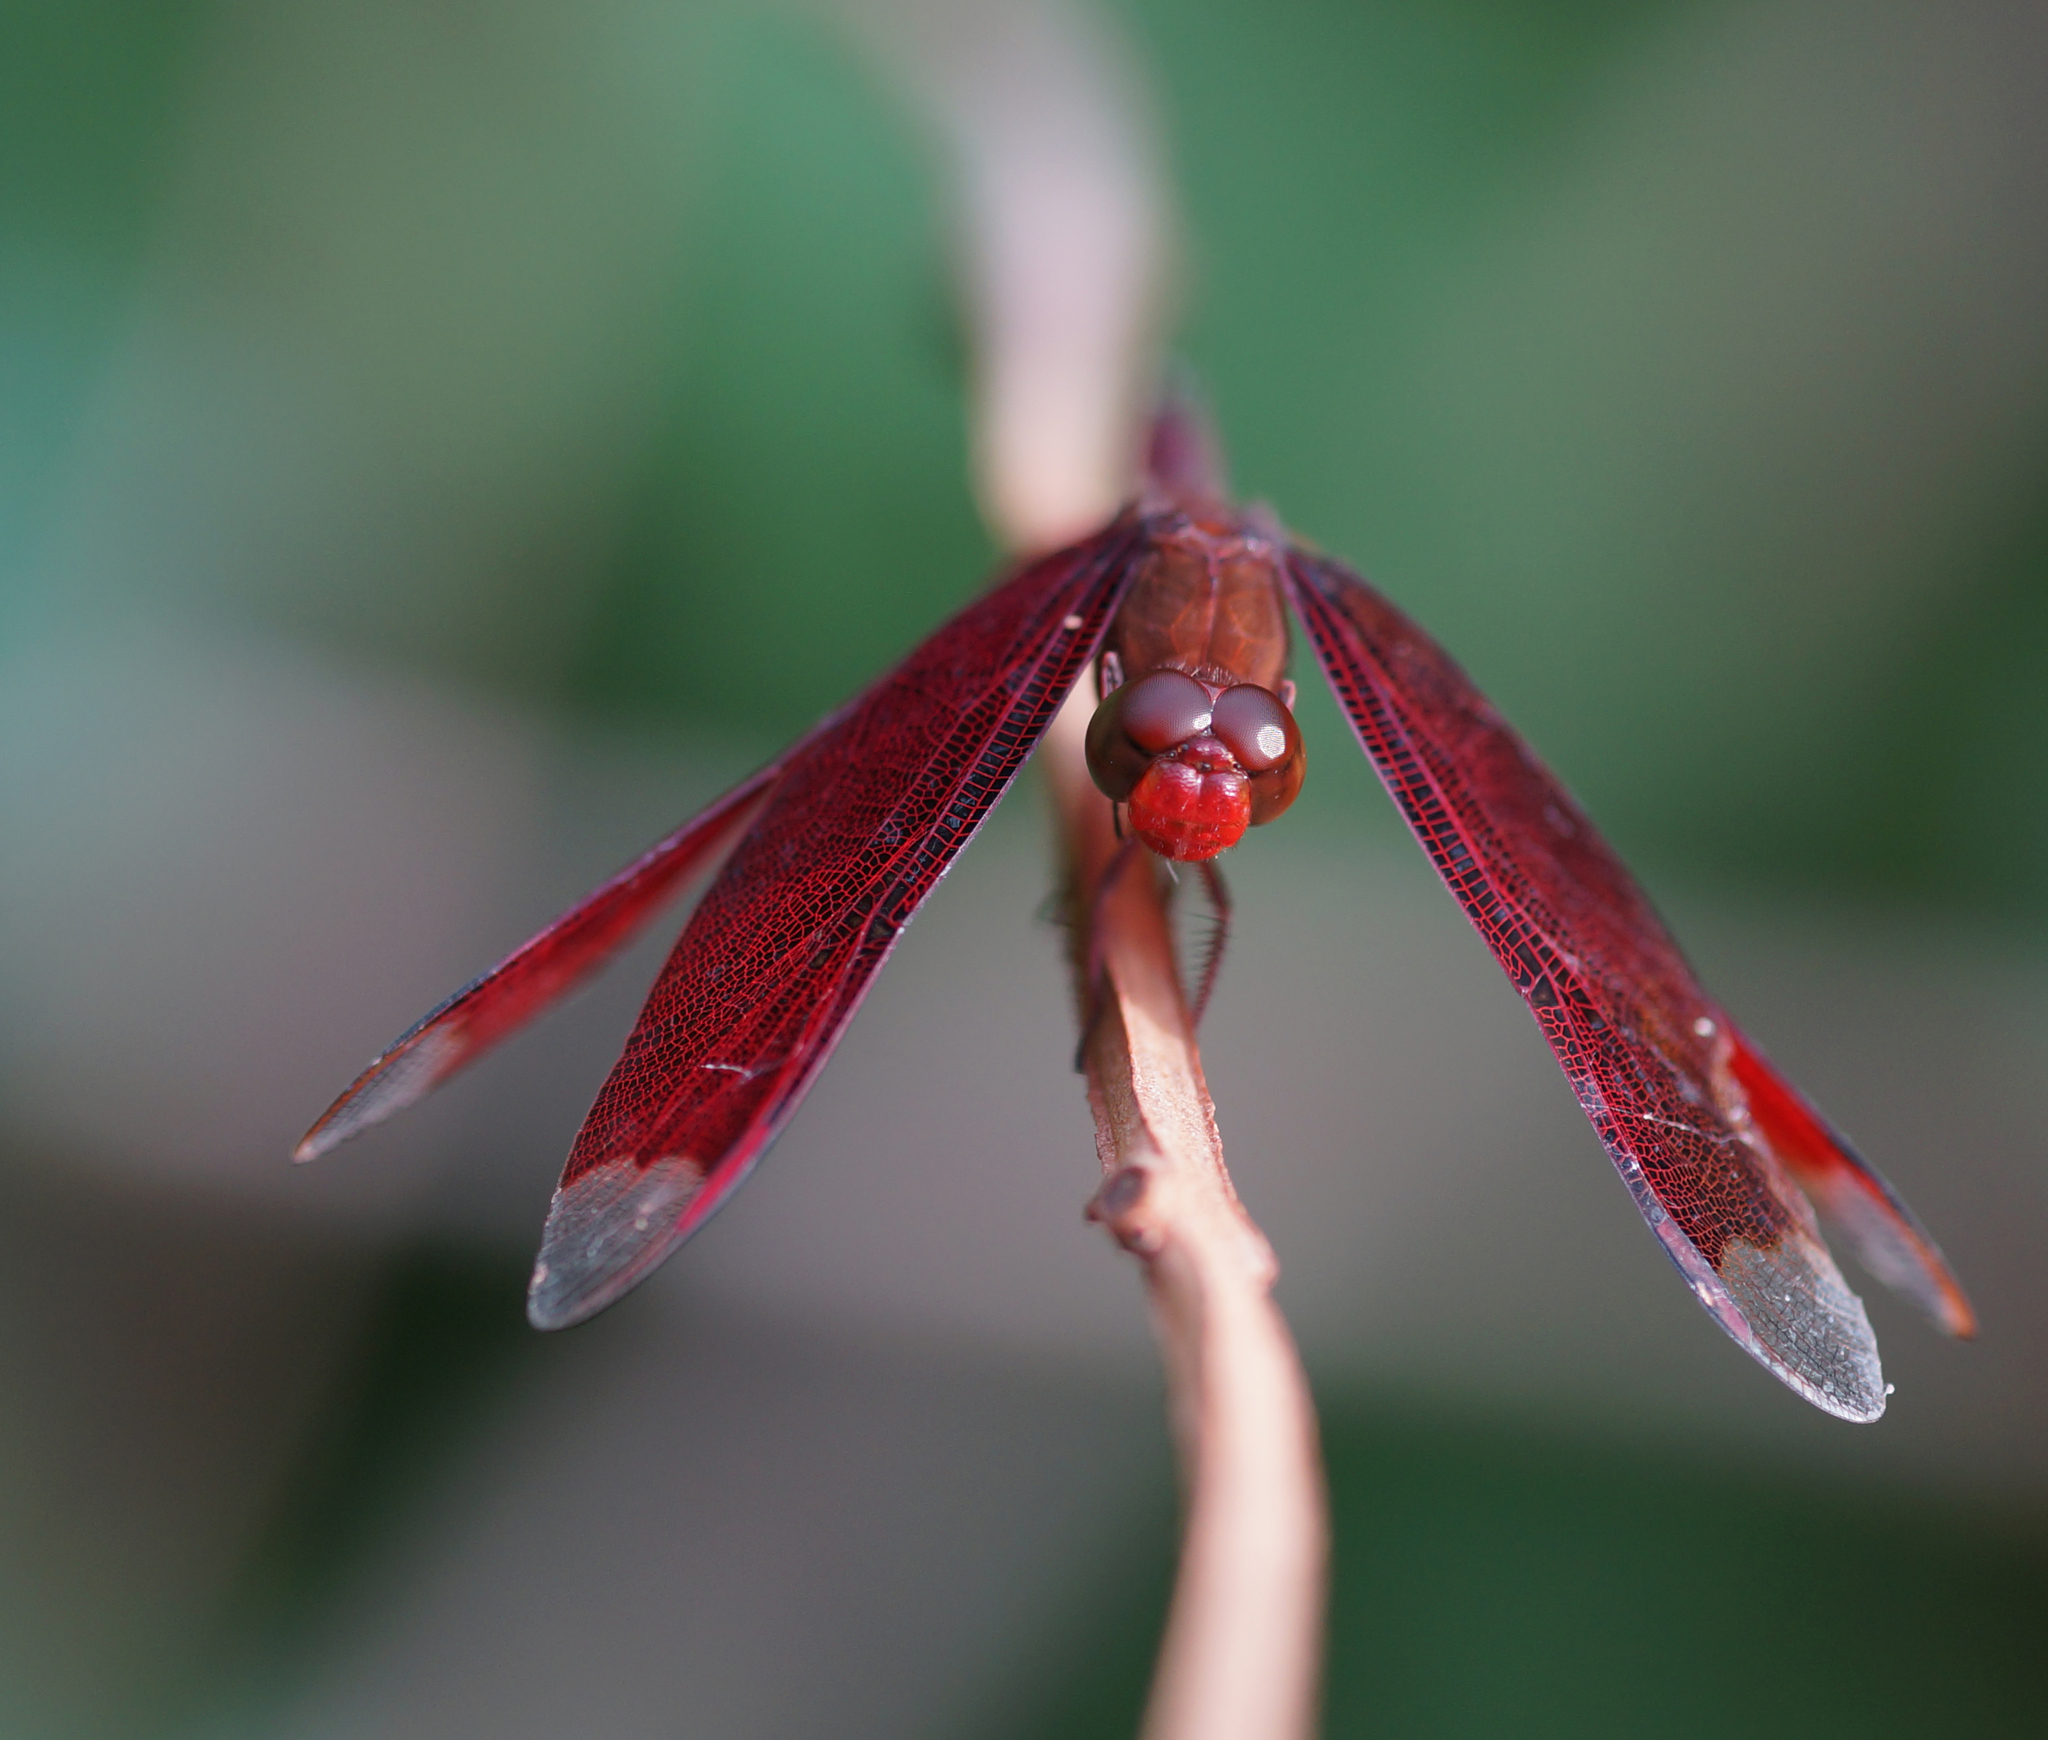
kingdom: Animalia
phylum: Arthropoda
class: Insecta
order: Odonata
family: Libellulidae
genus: Neurothemis
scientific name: Neurothemis fulvia
